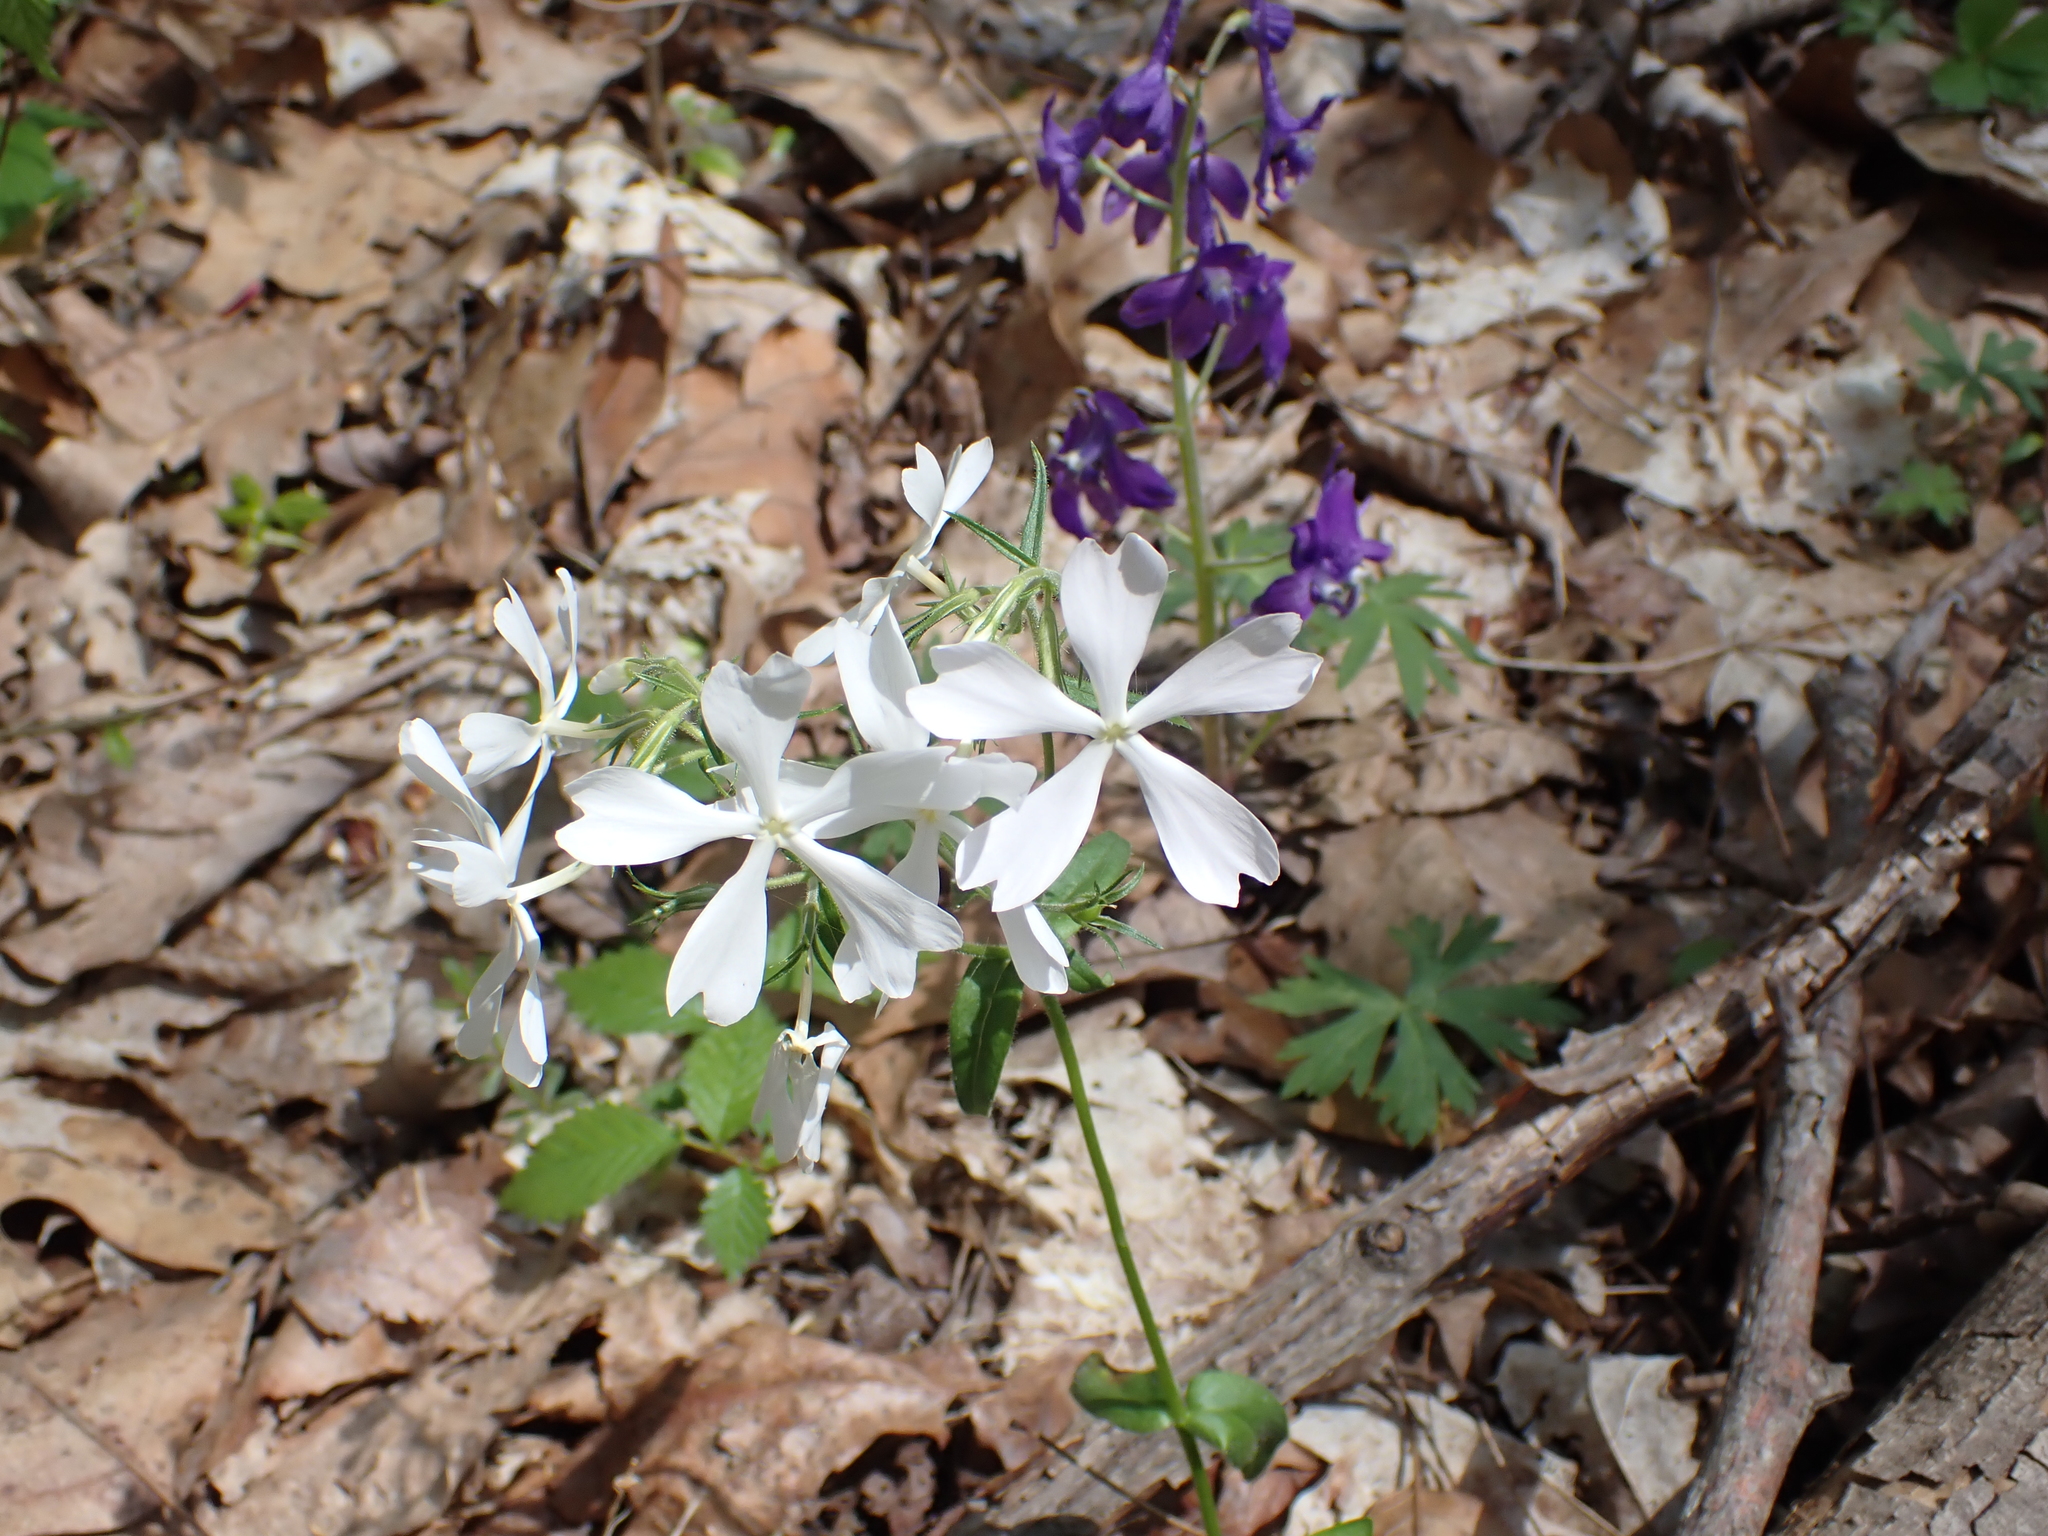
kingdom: Plantae
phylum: Tracheophyta
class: Magnoliopsida
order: Ericales
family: Polemoniaceae
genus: Phlox
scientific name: Phlox divaricata
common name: Blue phlox
